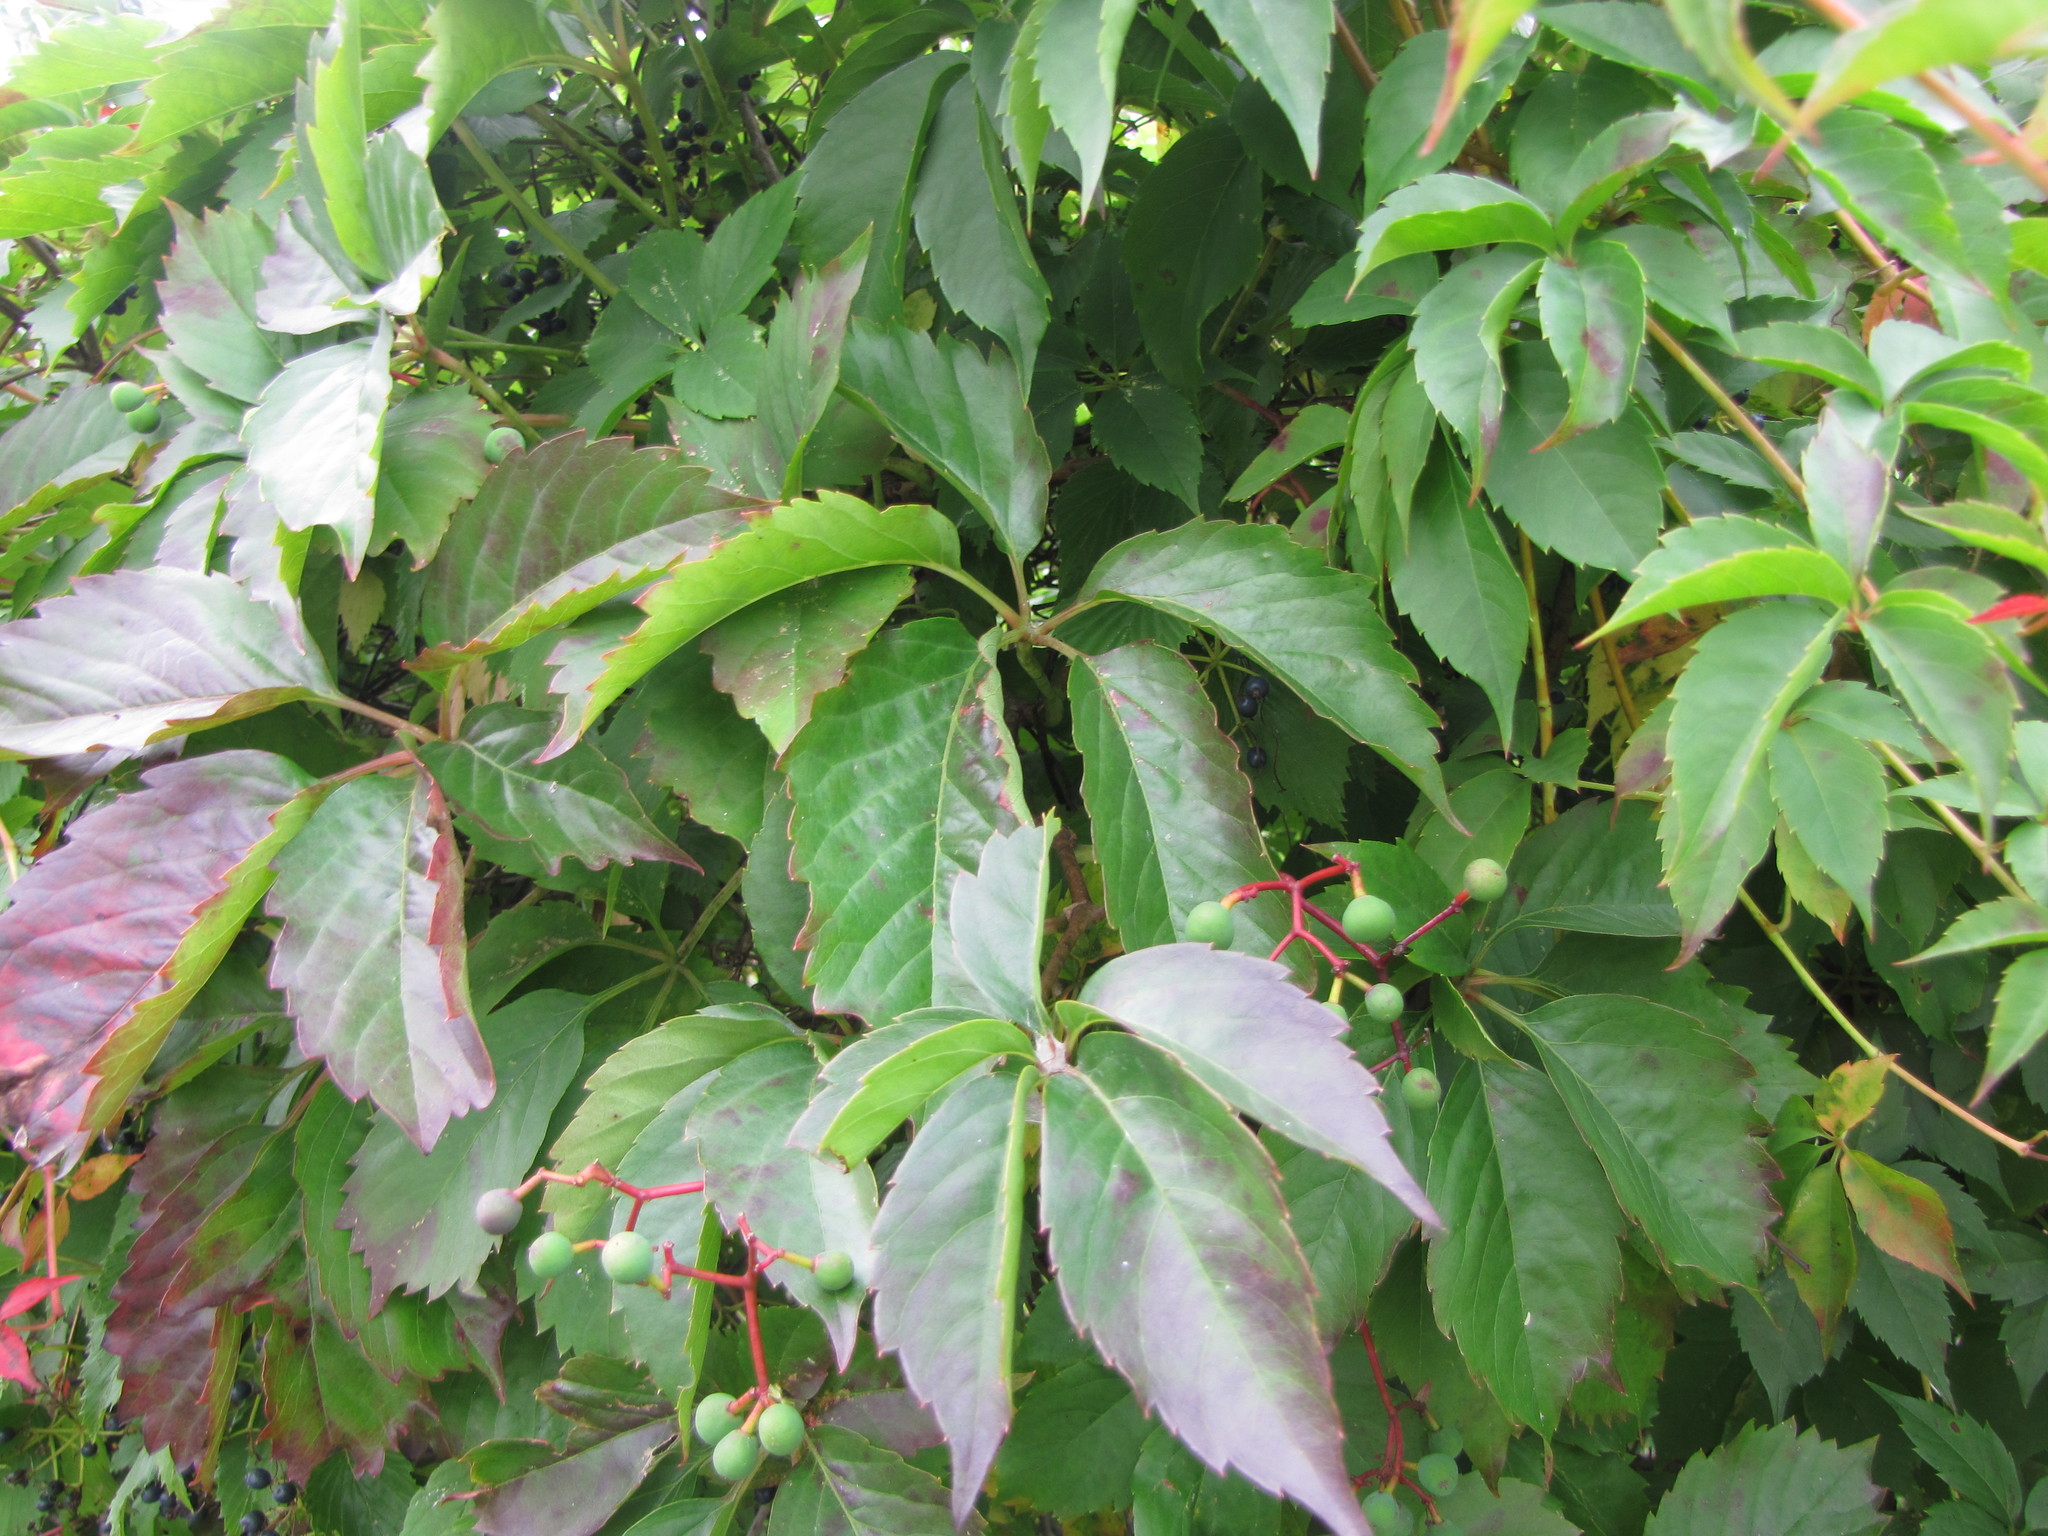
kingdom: Plantae
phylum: Tracheophyta
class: Magnoliopsida
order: Vitales
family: Vitaceae
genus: Parthenocissus
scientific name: Parthenocissus quinquefolia
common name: Virginia-creeper
